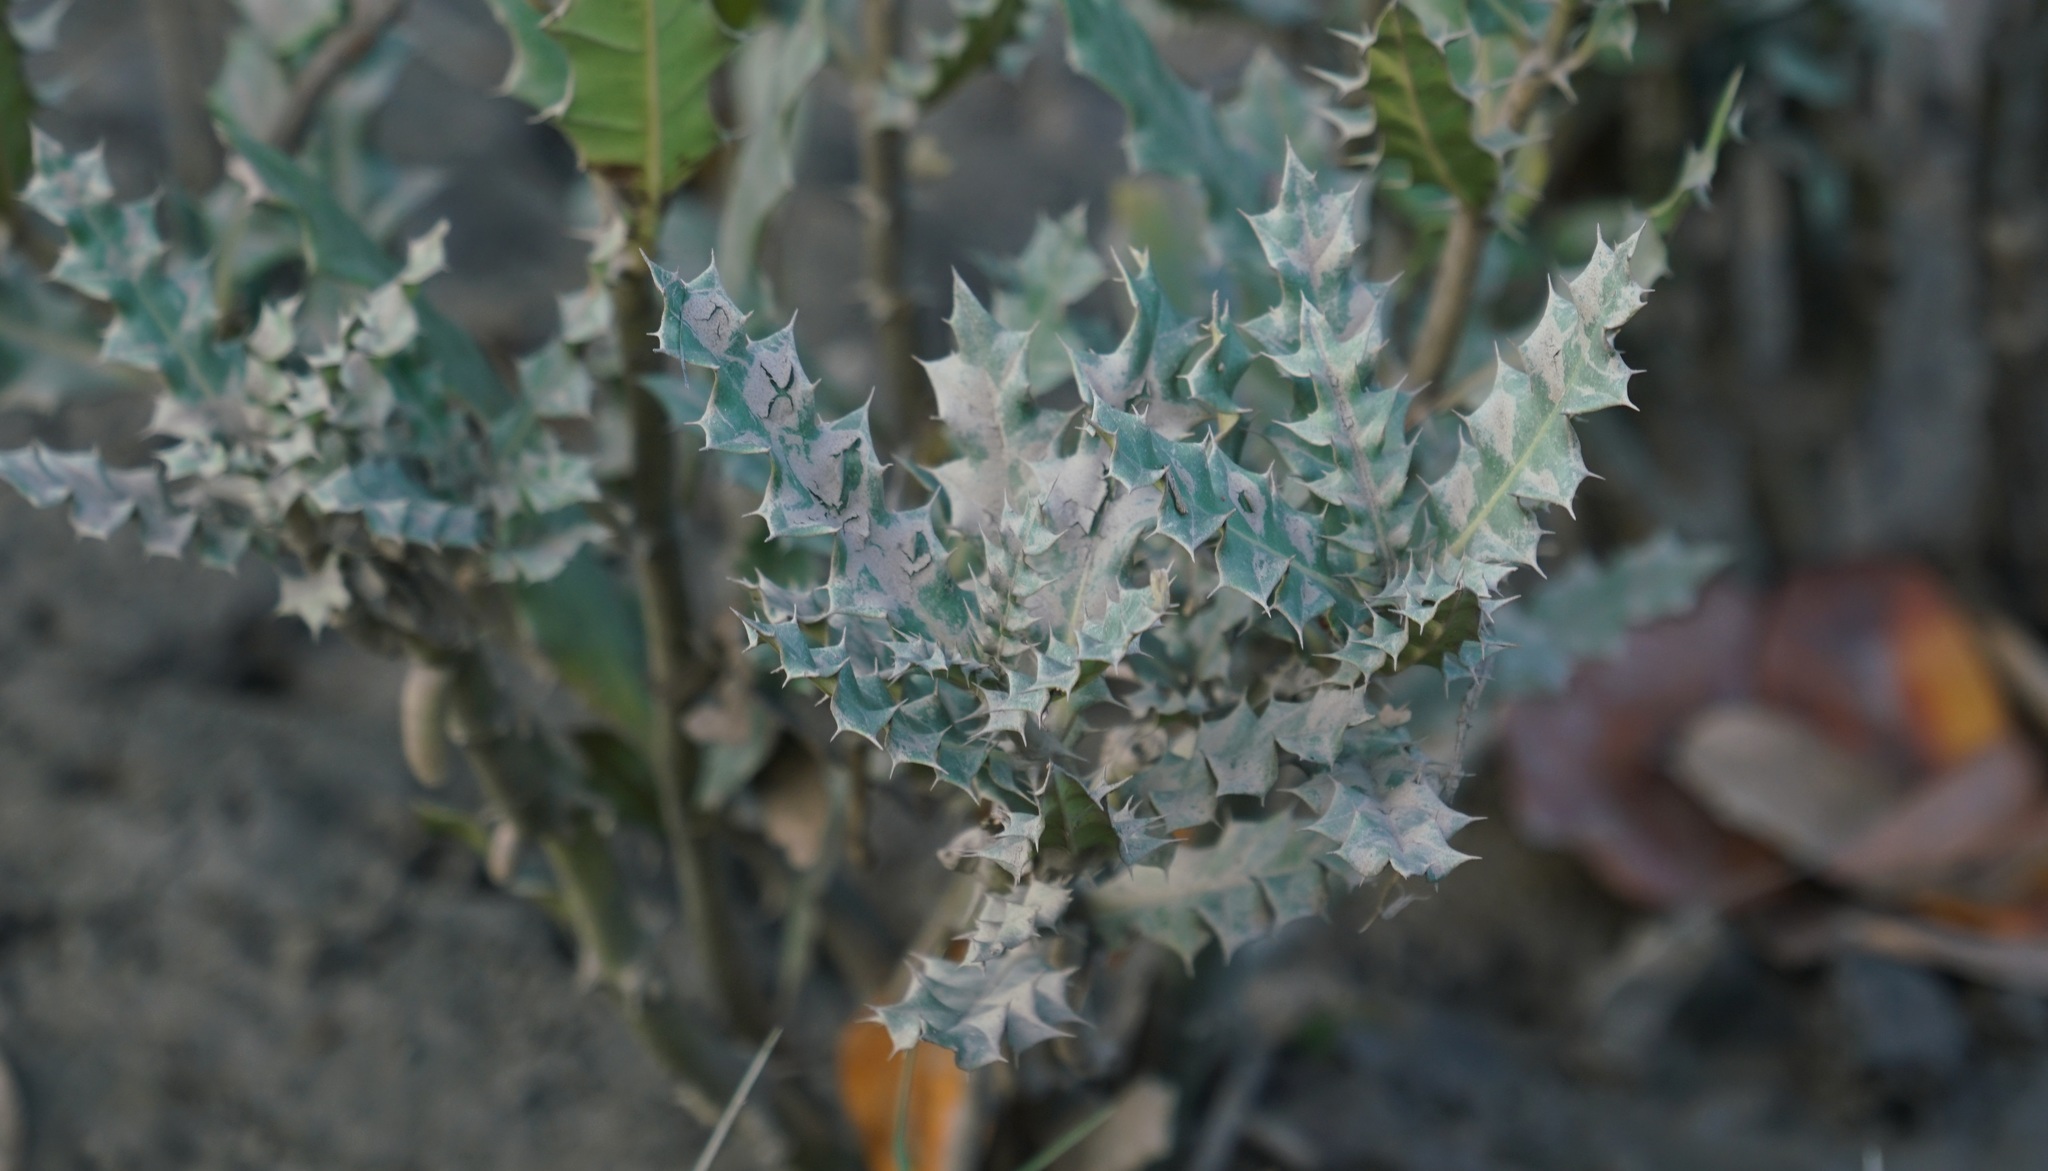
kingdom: Plantae
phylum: Tracheophyta
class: Magnoliopsida
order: Lamiales
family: Acanthaceae
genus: Acanthus
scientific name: Acanthus ilicifolius
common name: Holy mangrove
